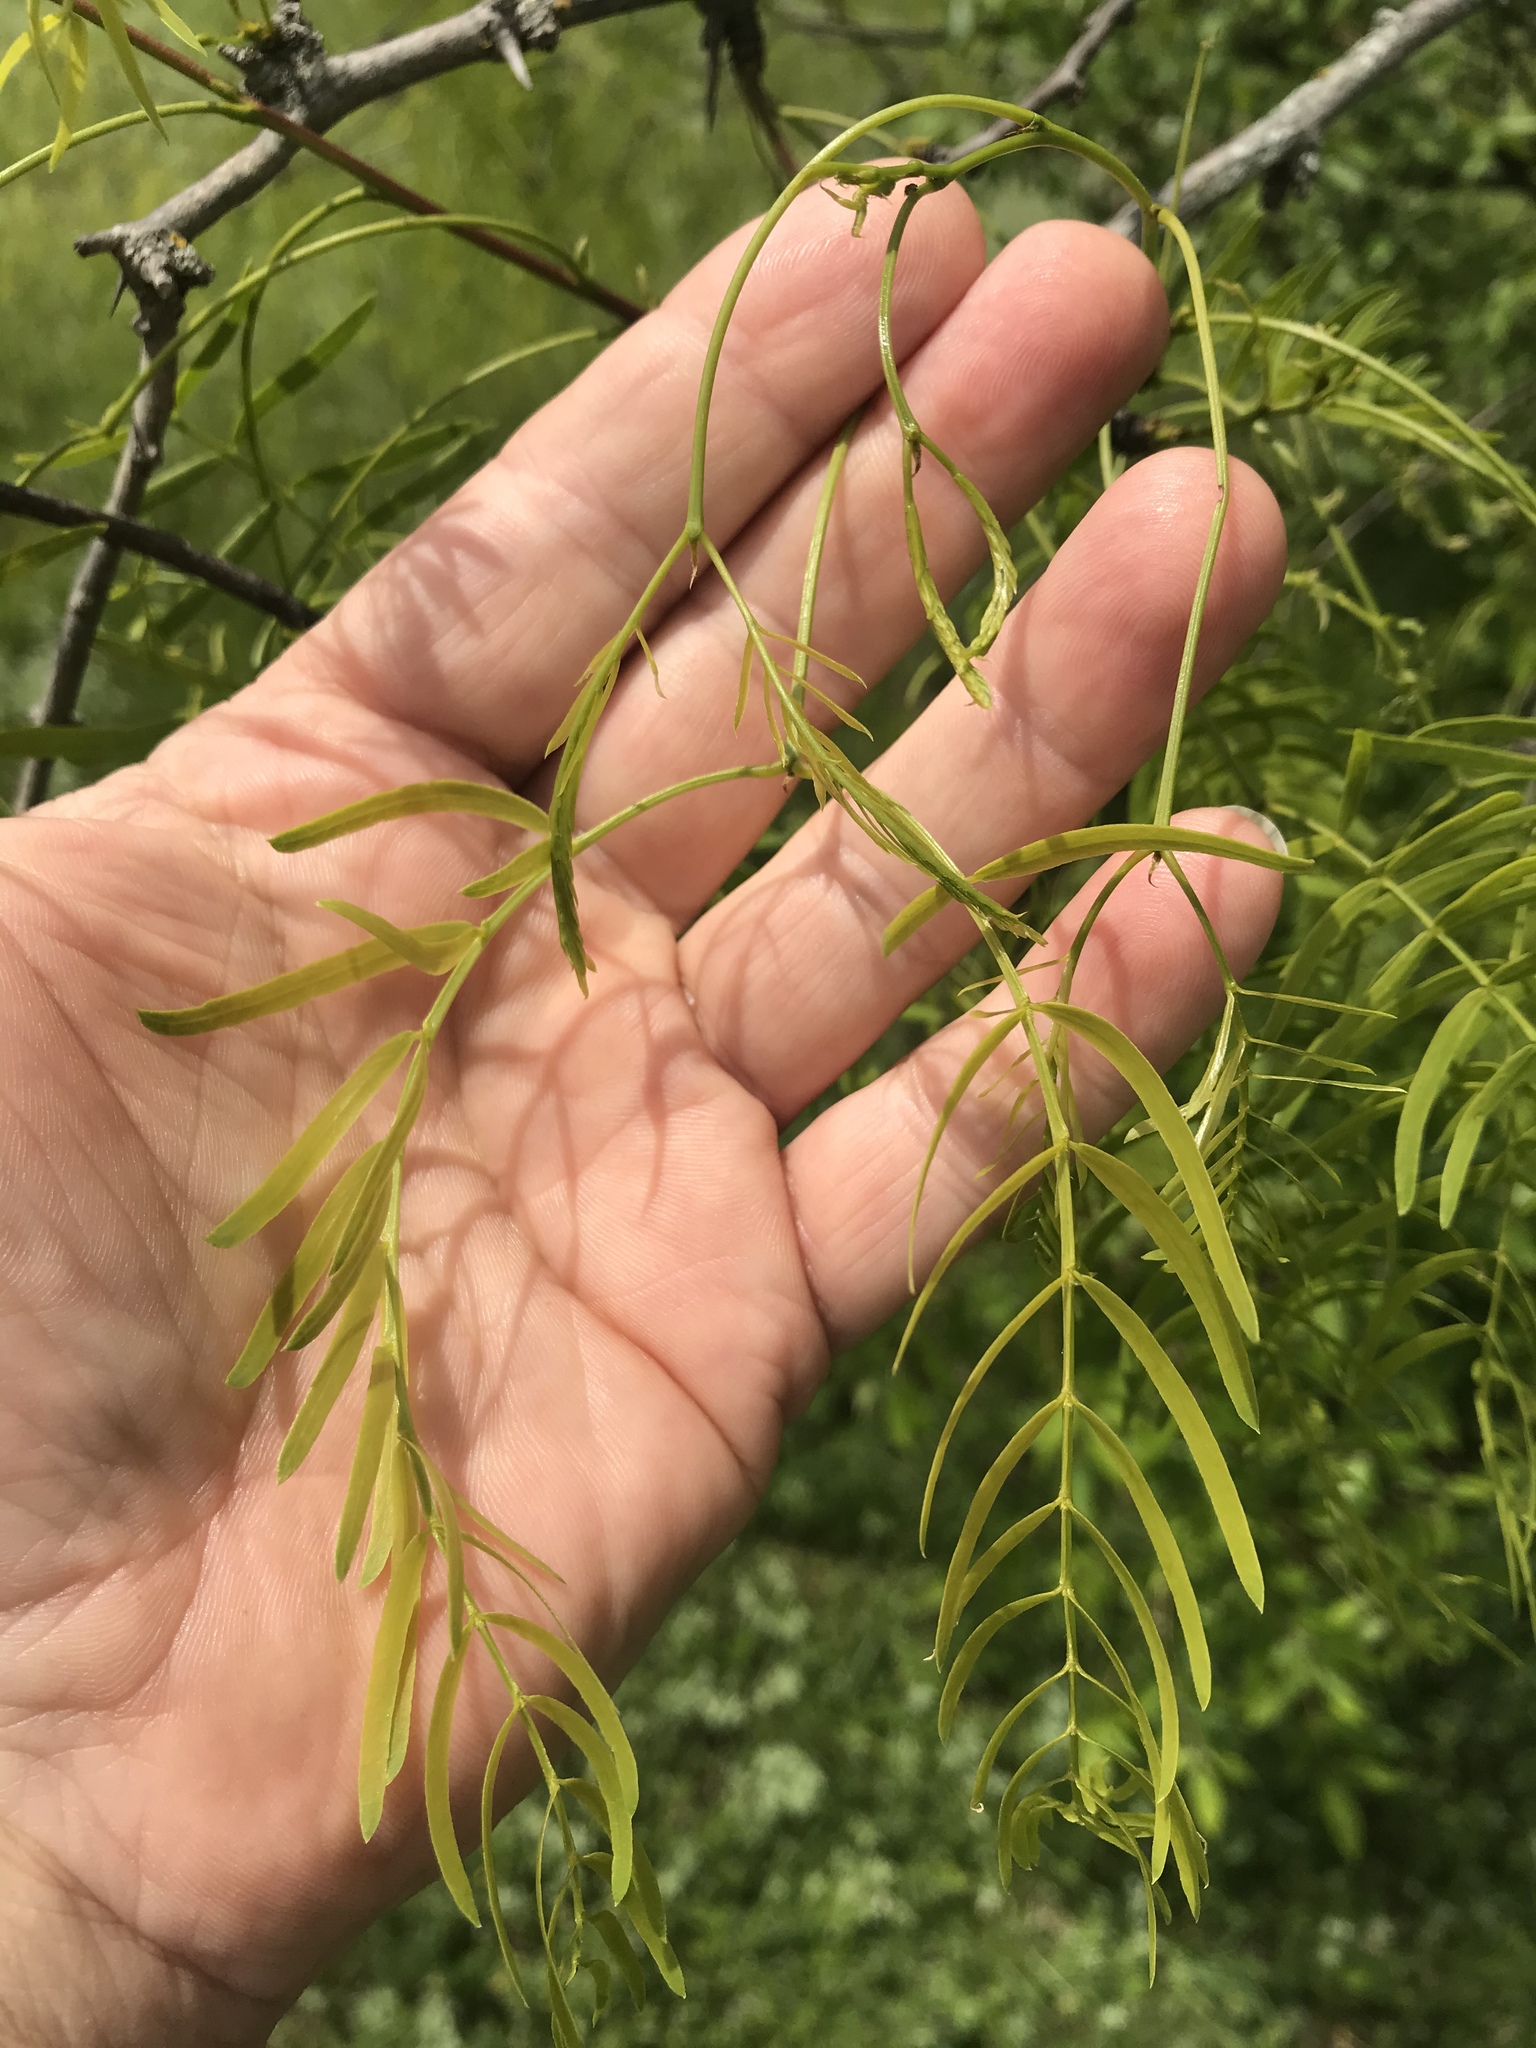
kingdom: Plantae
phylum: Tracheophyta
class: Magnoliopsida
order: Fabales
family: Fabaceae
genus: Prosopis
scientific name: Prosopis glandulosa
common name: Honey mesquite
